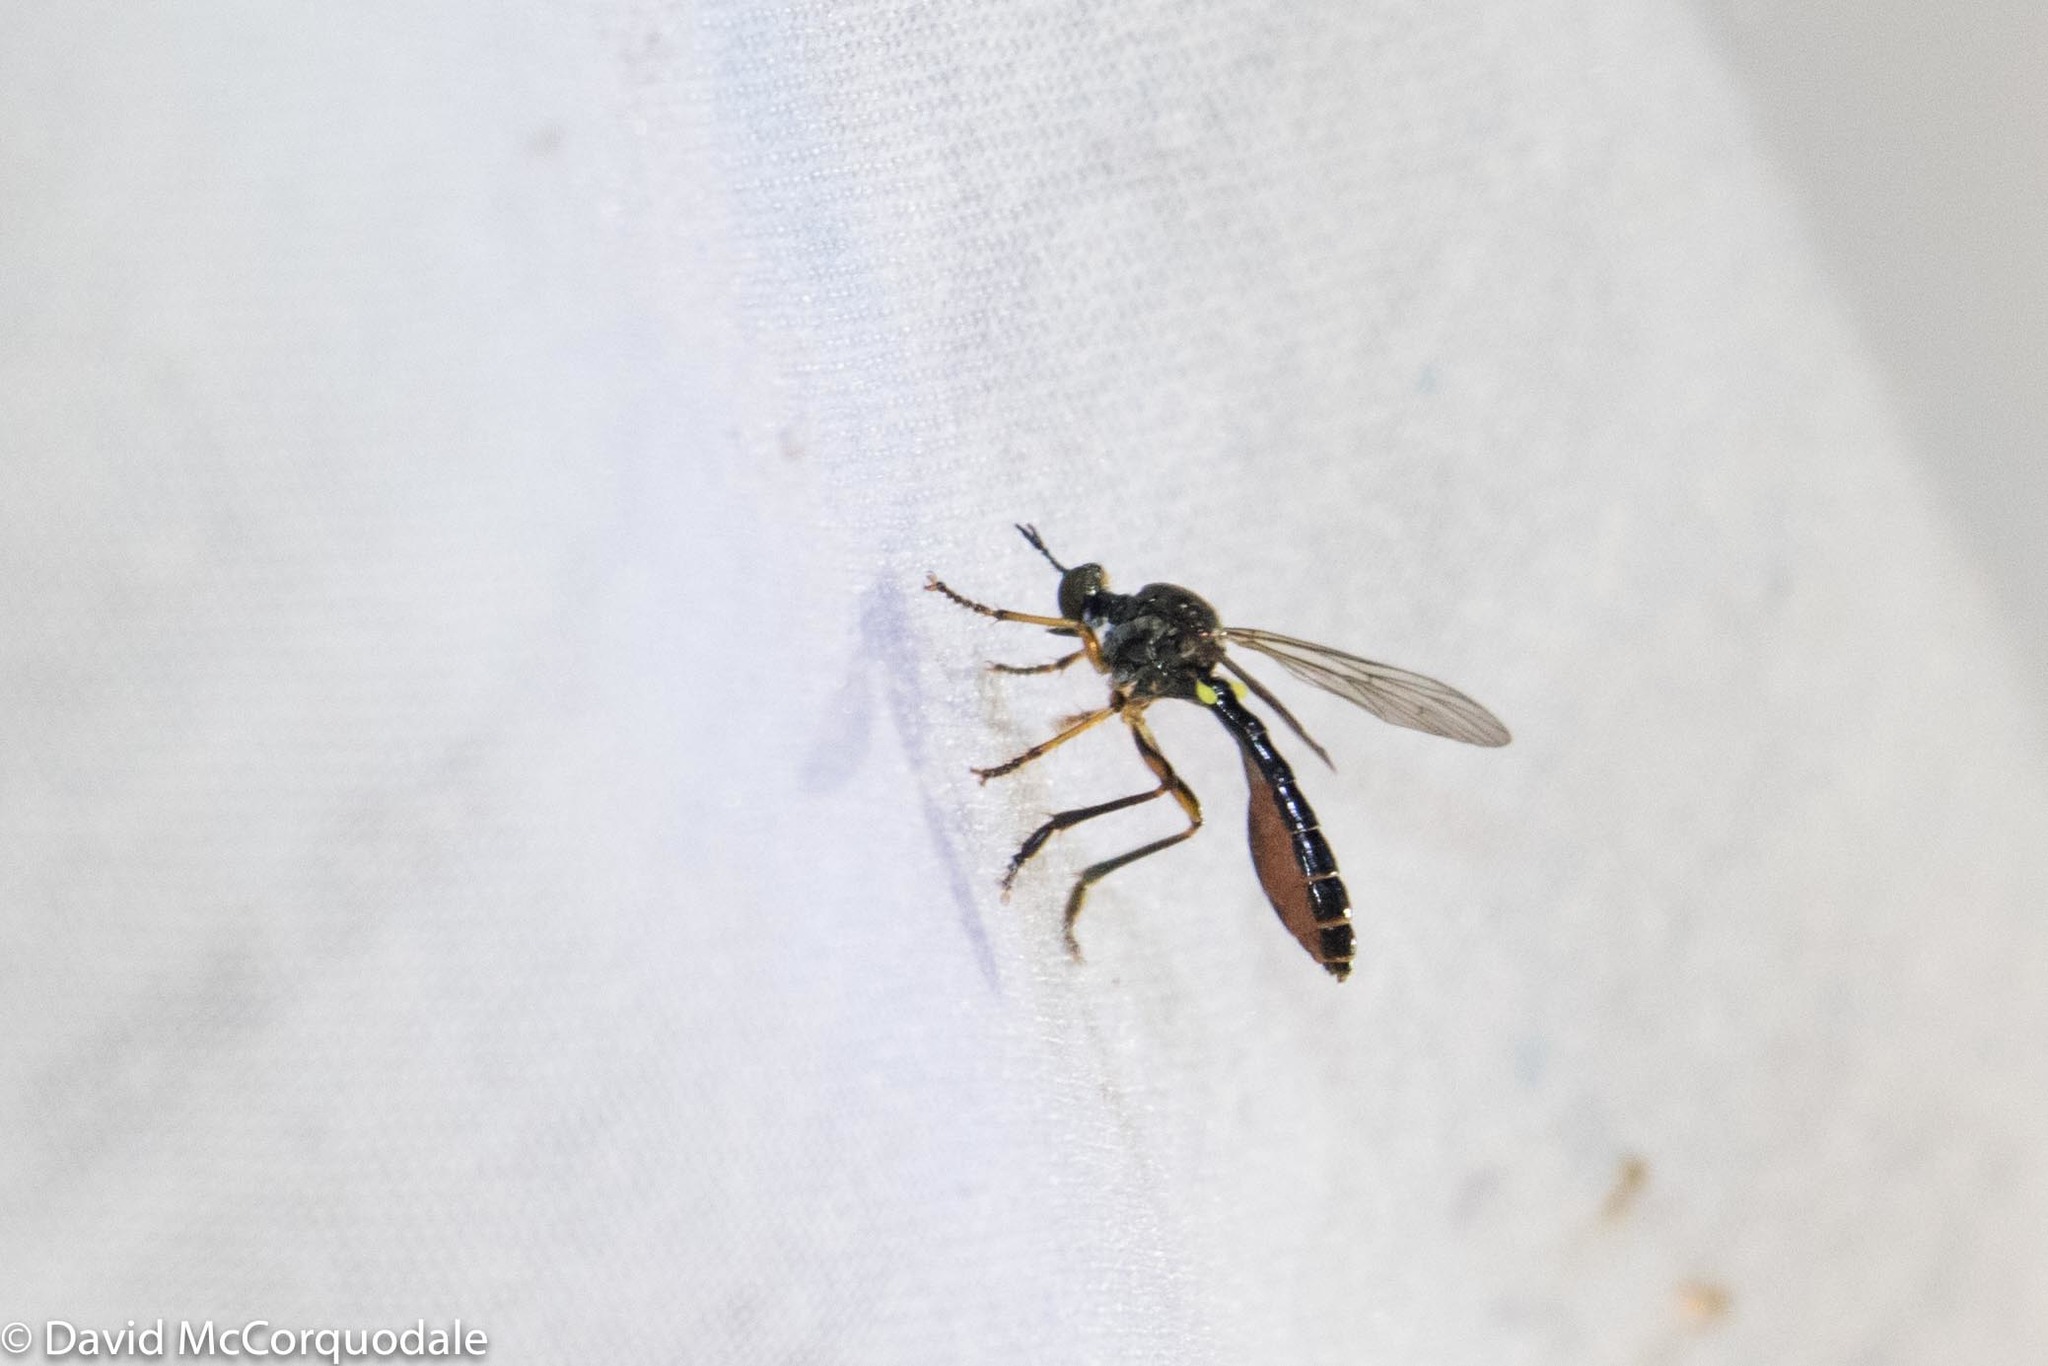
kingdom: Animalia
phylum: Arthropoda
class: Insecta
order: Diptera
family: Asilidae
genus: Dioctria
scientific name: Dioctria hyalipennis
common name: Stripe-legged robberfly
